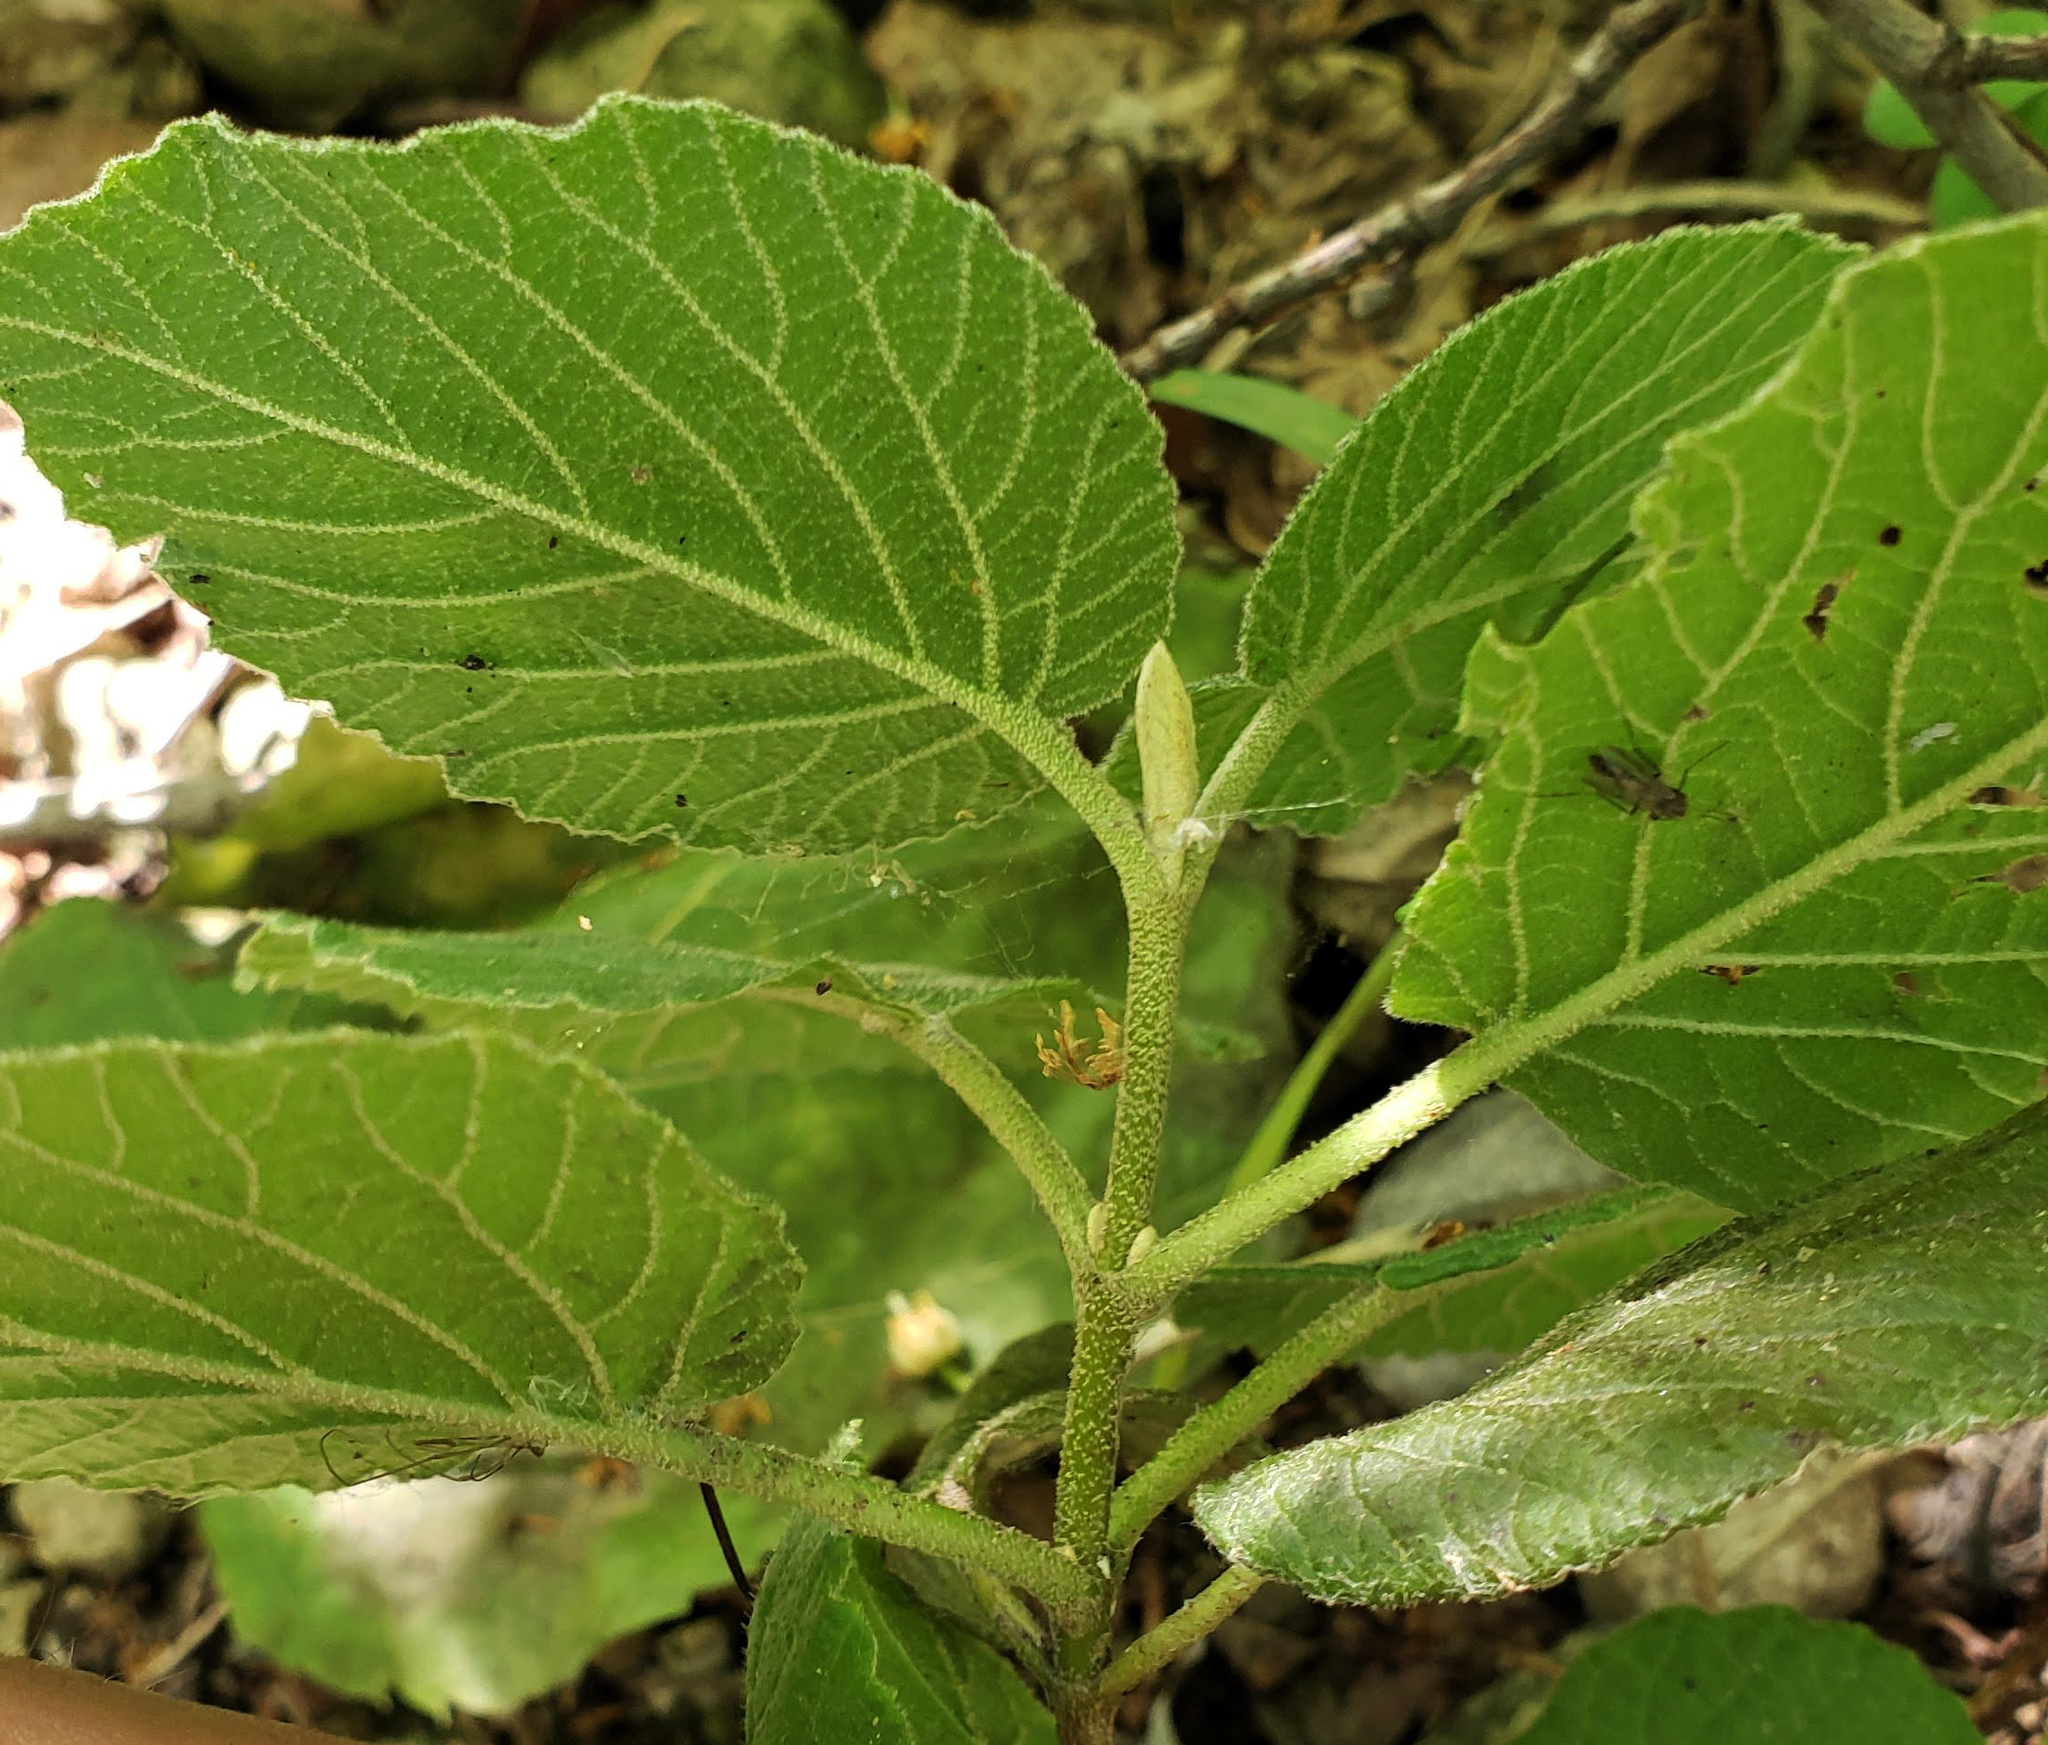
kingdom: Plantae
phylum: Tracheophyta
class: Magnoliopsida
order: Dipsacales
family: Viburnaceae
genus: Viburnum
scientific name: Viburnum lantana
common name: Wayfaring tree
